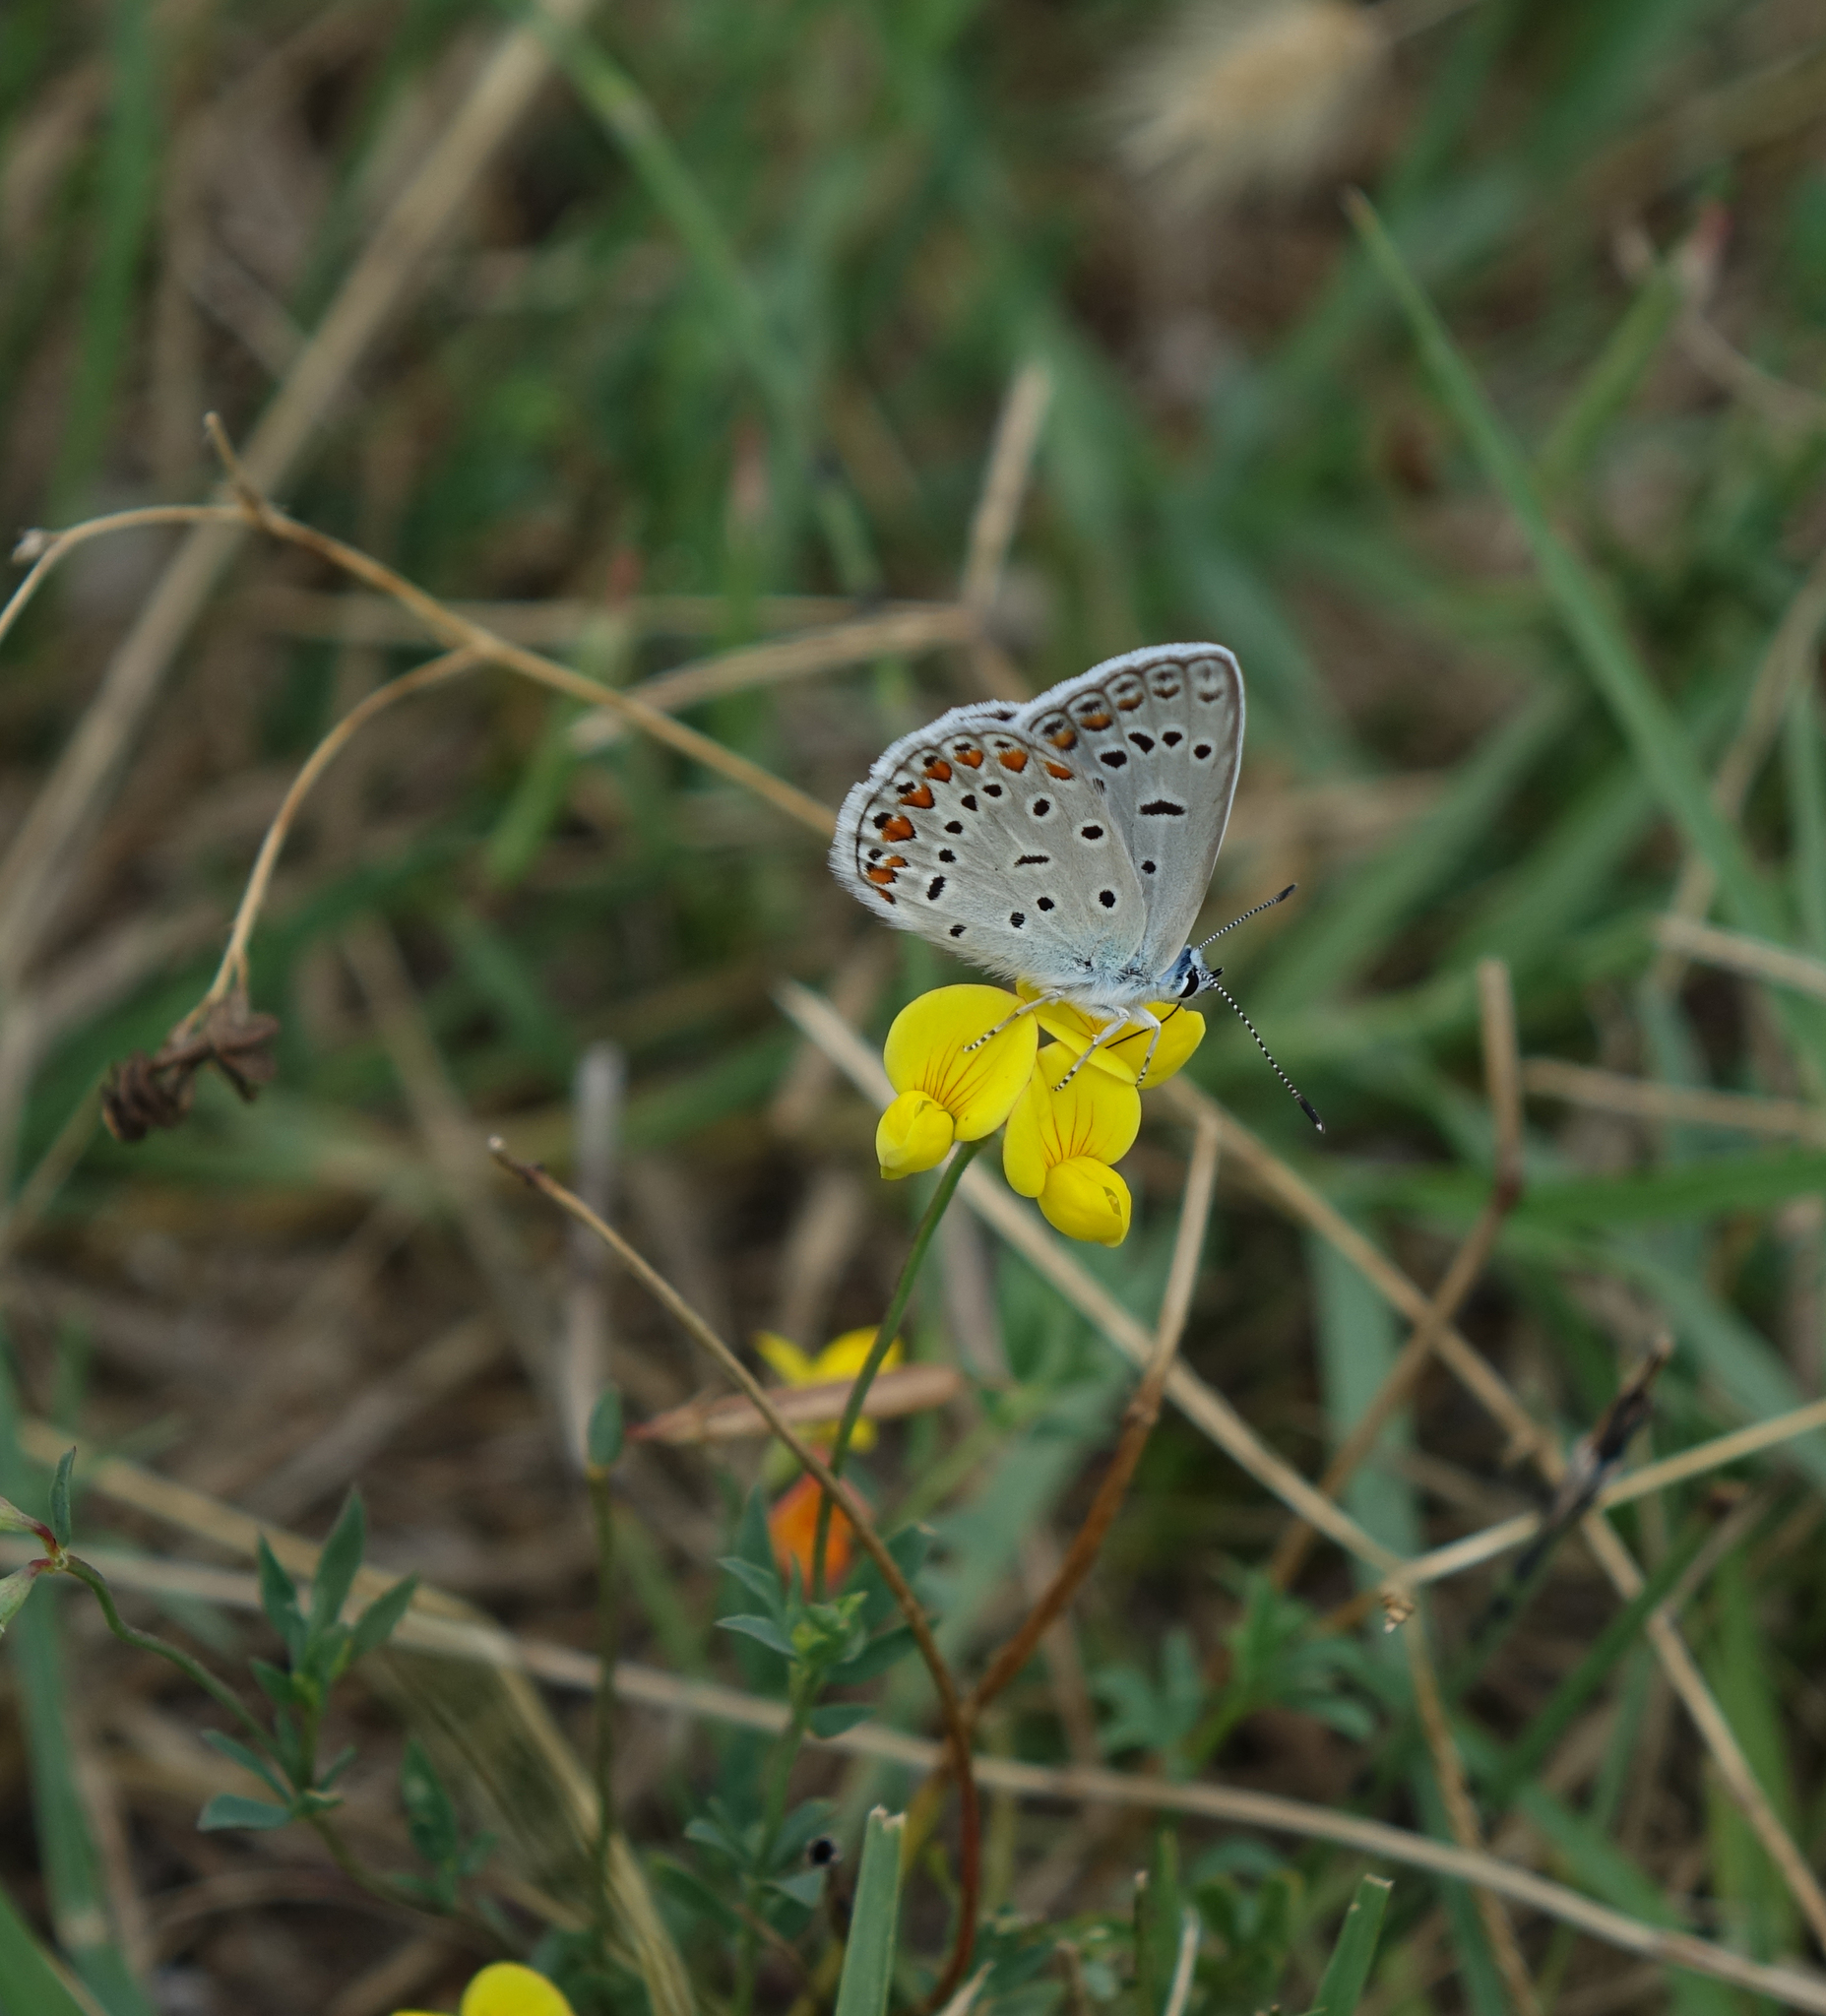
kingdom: Animalia
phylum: Arthropoda
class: Insecta
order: Lepidoptera
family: Lycaenidae
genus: Polyommatus
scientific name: Polyommatus icarus
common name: Common blue
